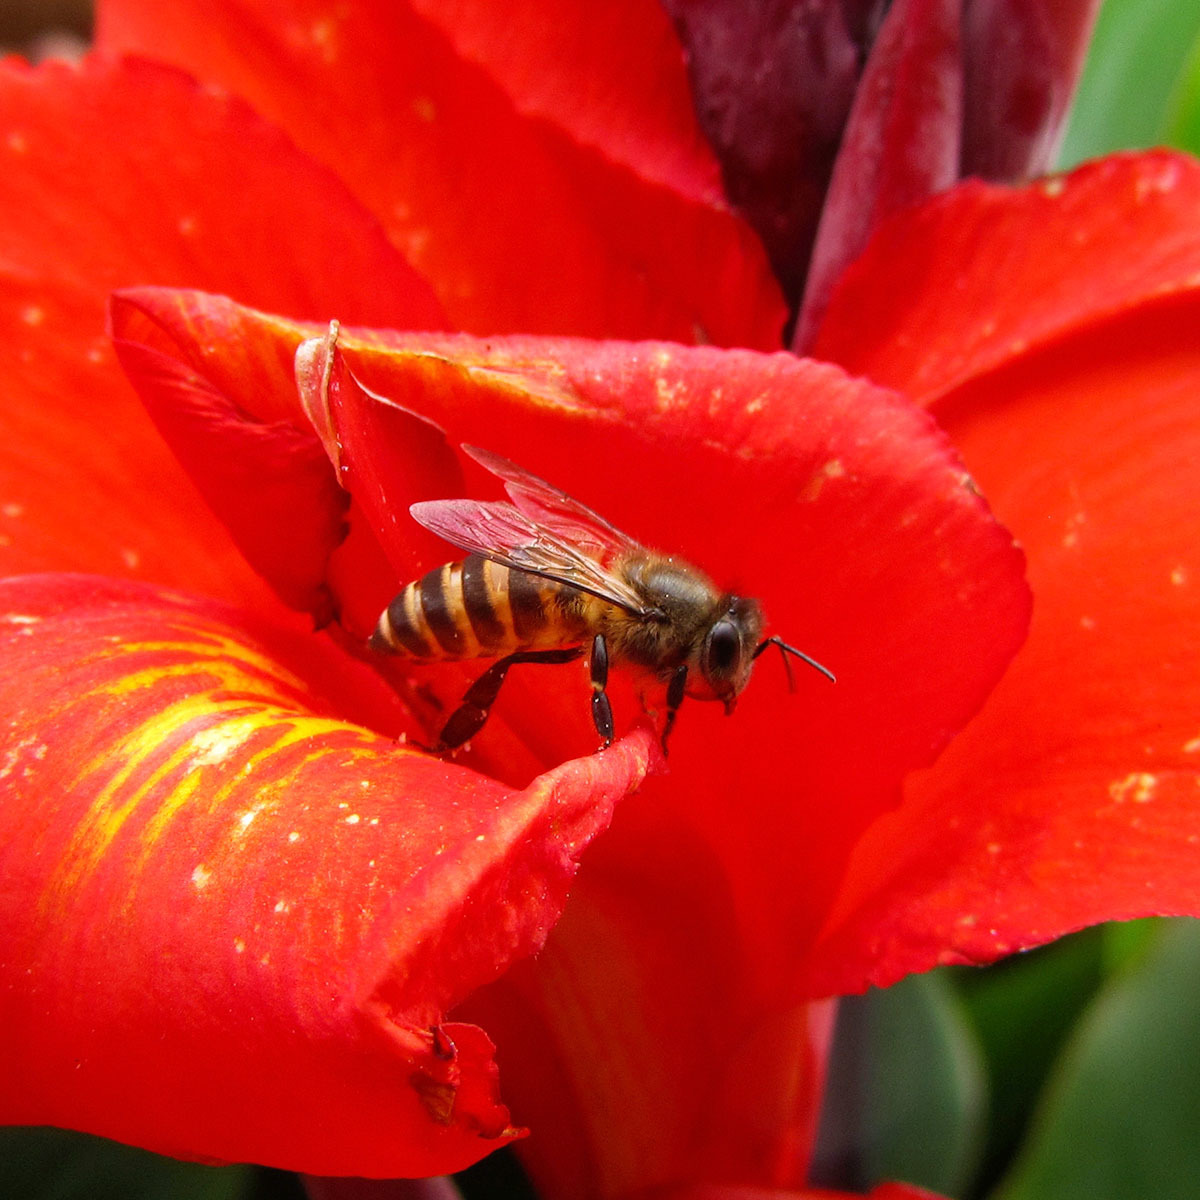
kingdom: Animalia
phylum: Arthropoda
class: Insecta
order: Hymenoptera
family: Apidae
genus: Apis
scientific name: Apis cerana
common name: Honey bee
